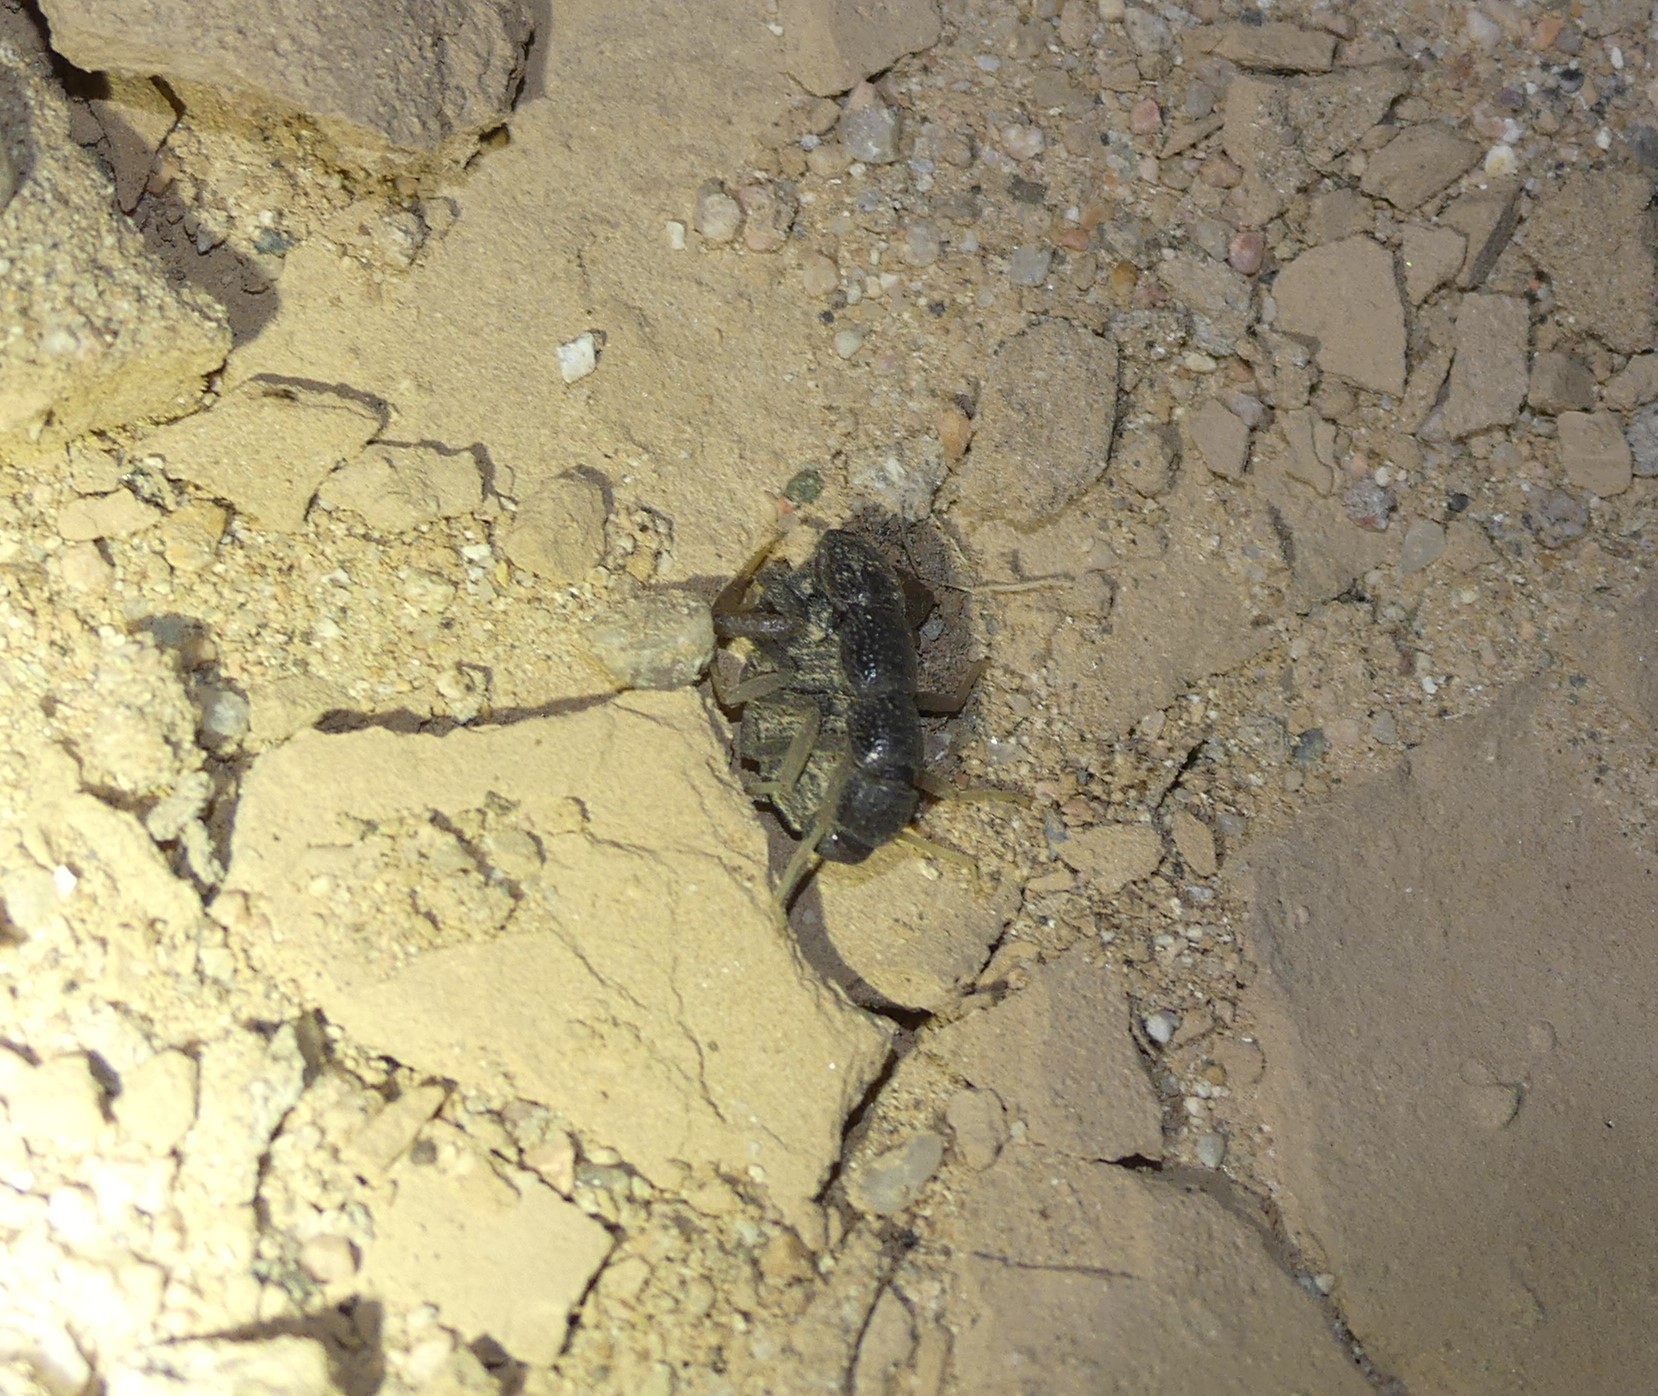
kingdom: Animalia
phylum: Arthropoda
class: Arachnida
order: Scorpiones
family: Buthidae
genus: Orthochirus
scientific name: Orthochirus olivaceus
